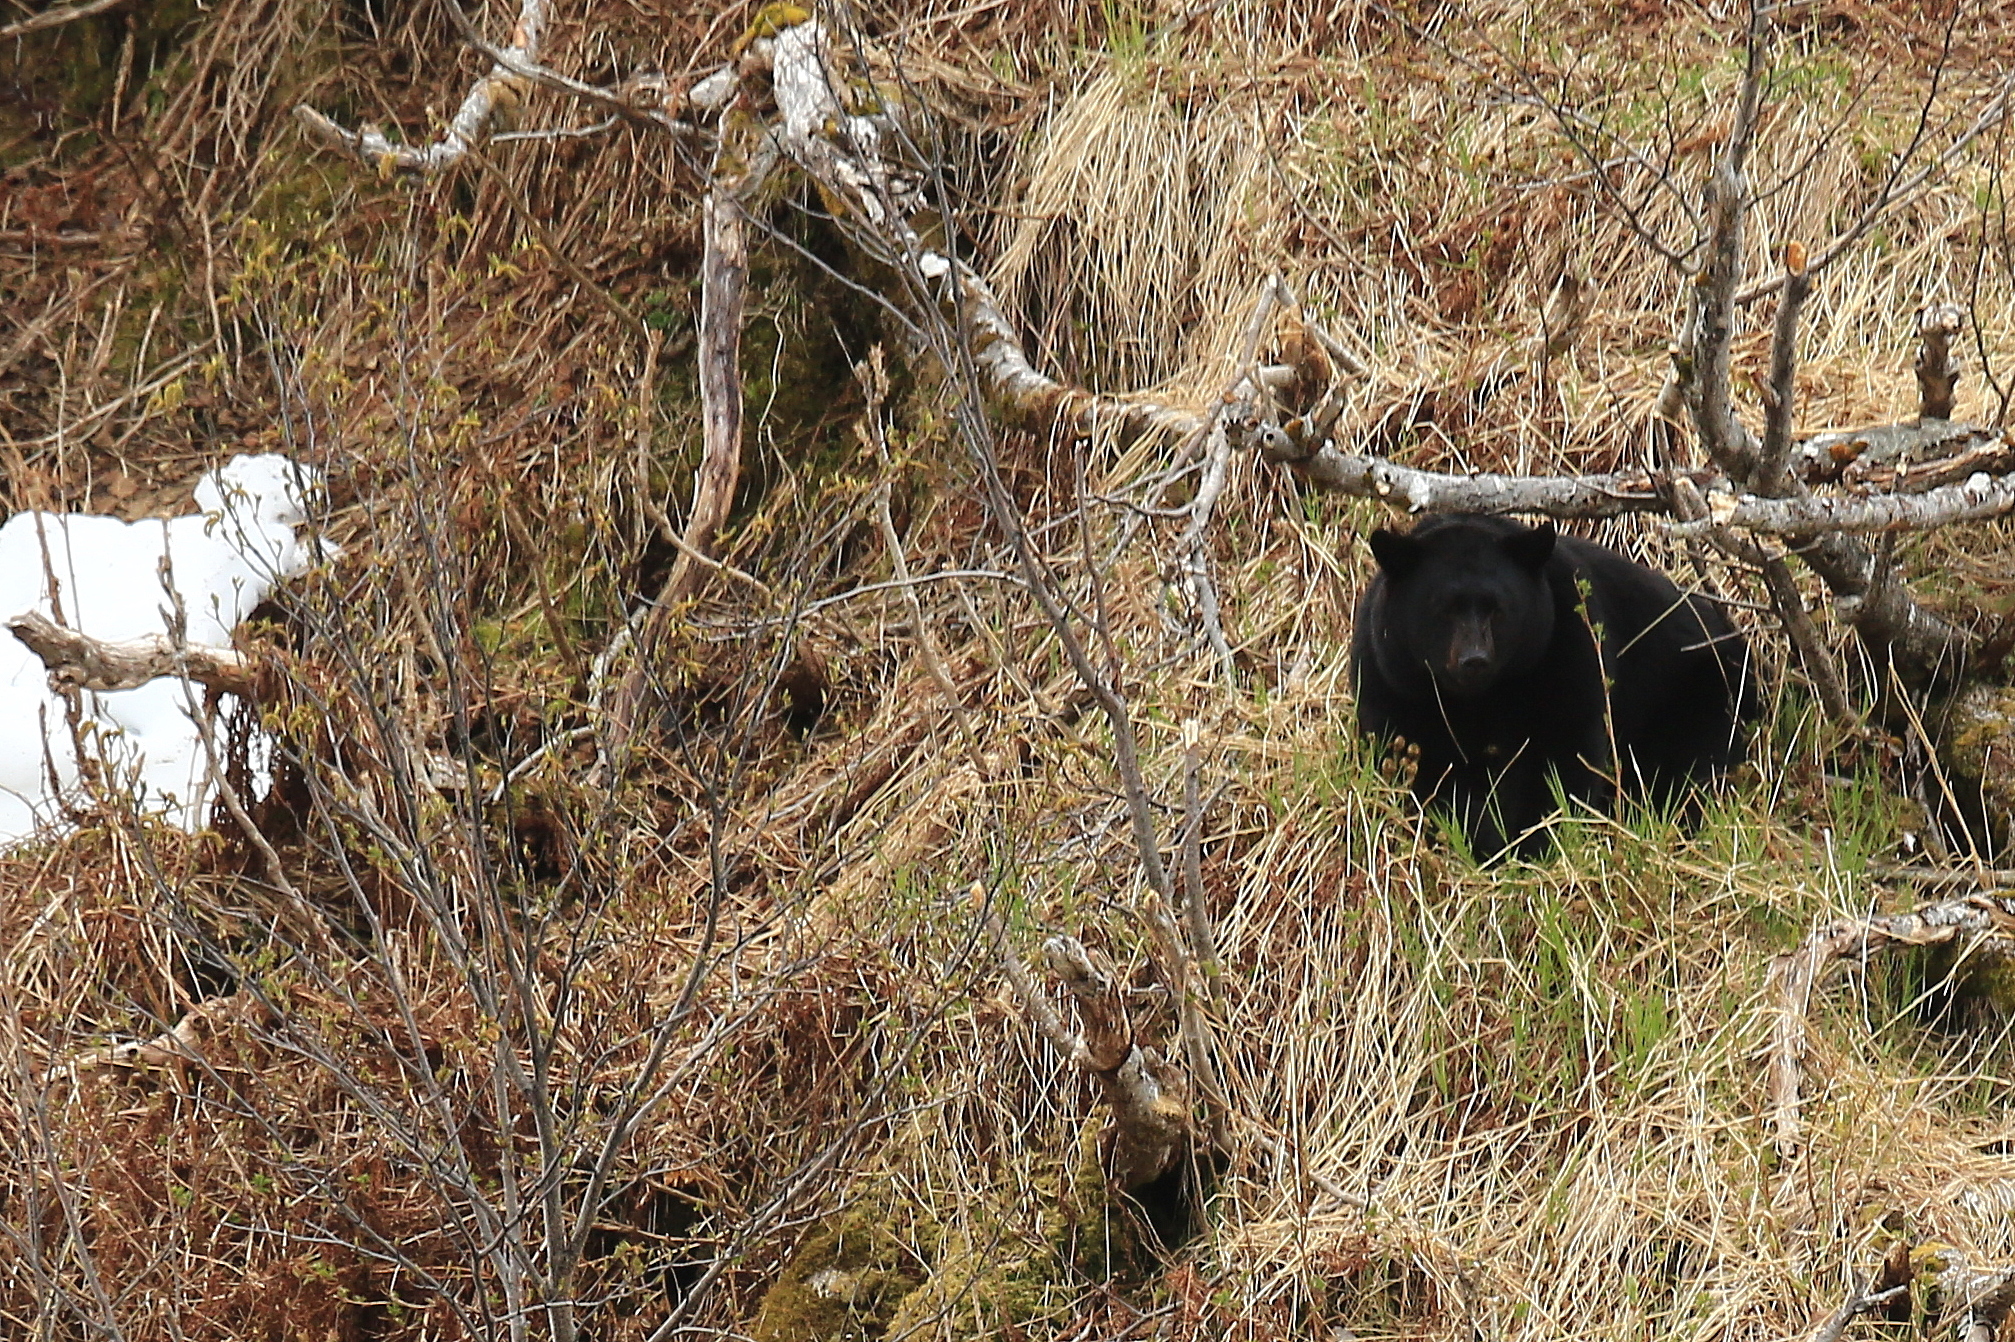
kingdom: Animalia
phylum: Chordata
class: Mammalia
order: Carnivora
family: Ursidae
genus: Ursus
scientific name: Ursus americanus
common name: American black bear
